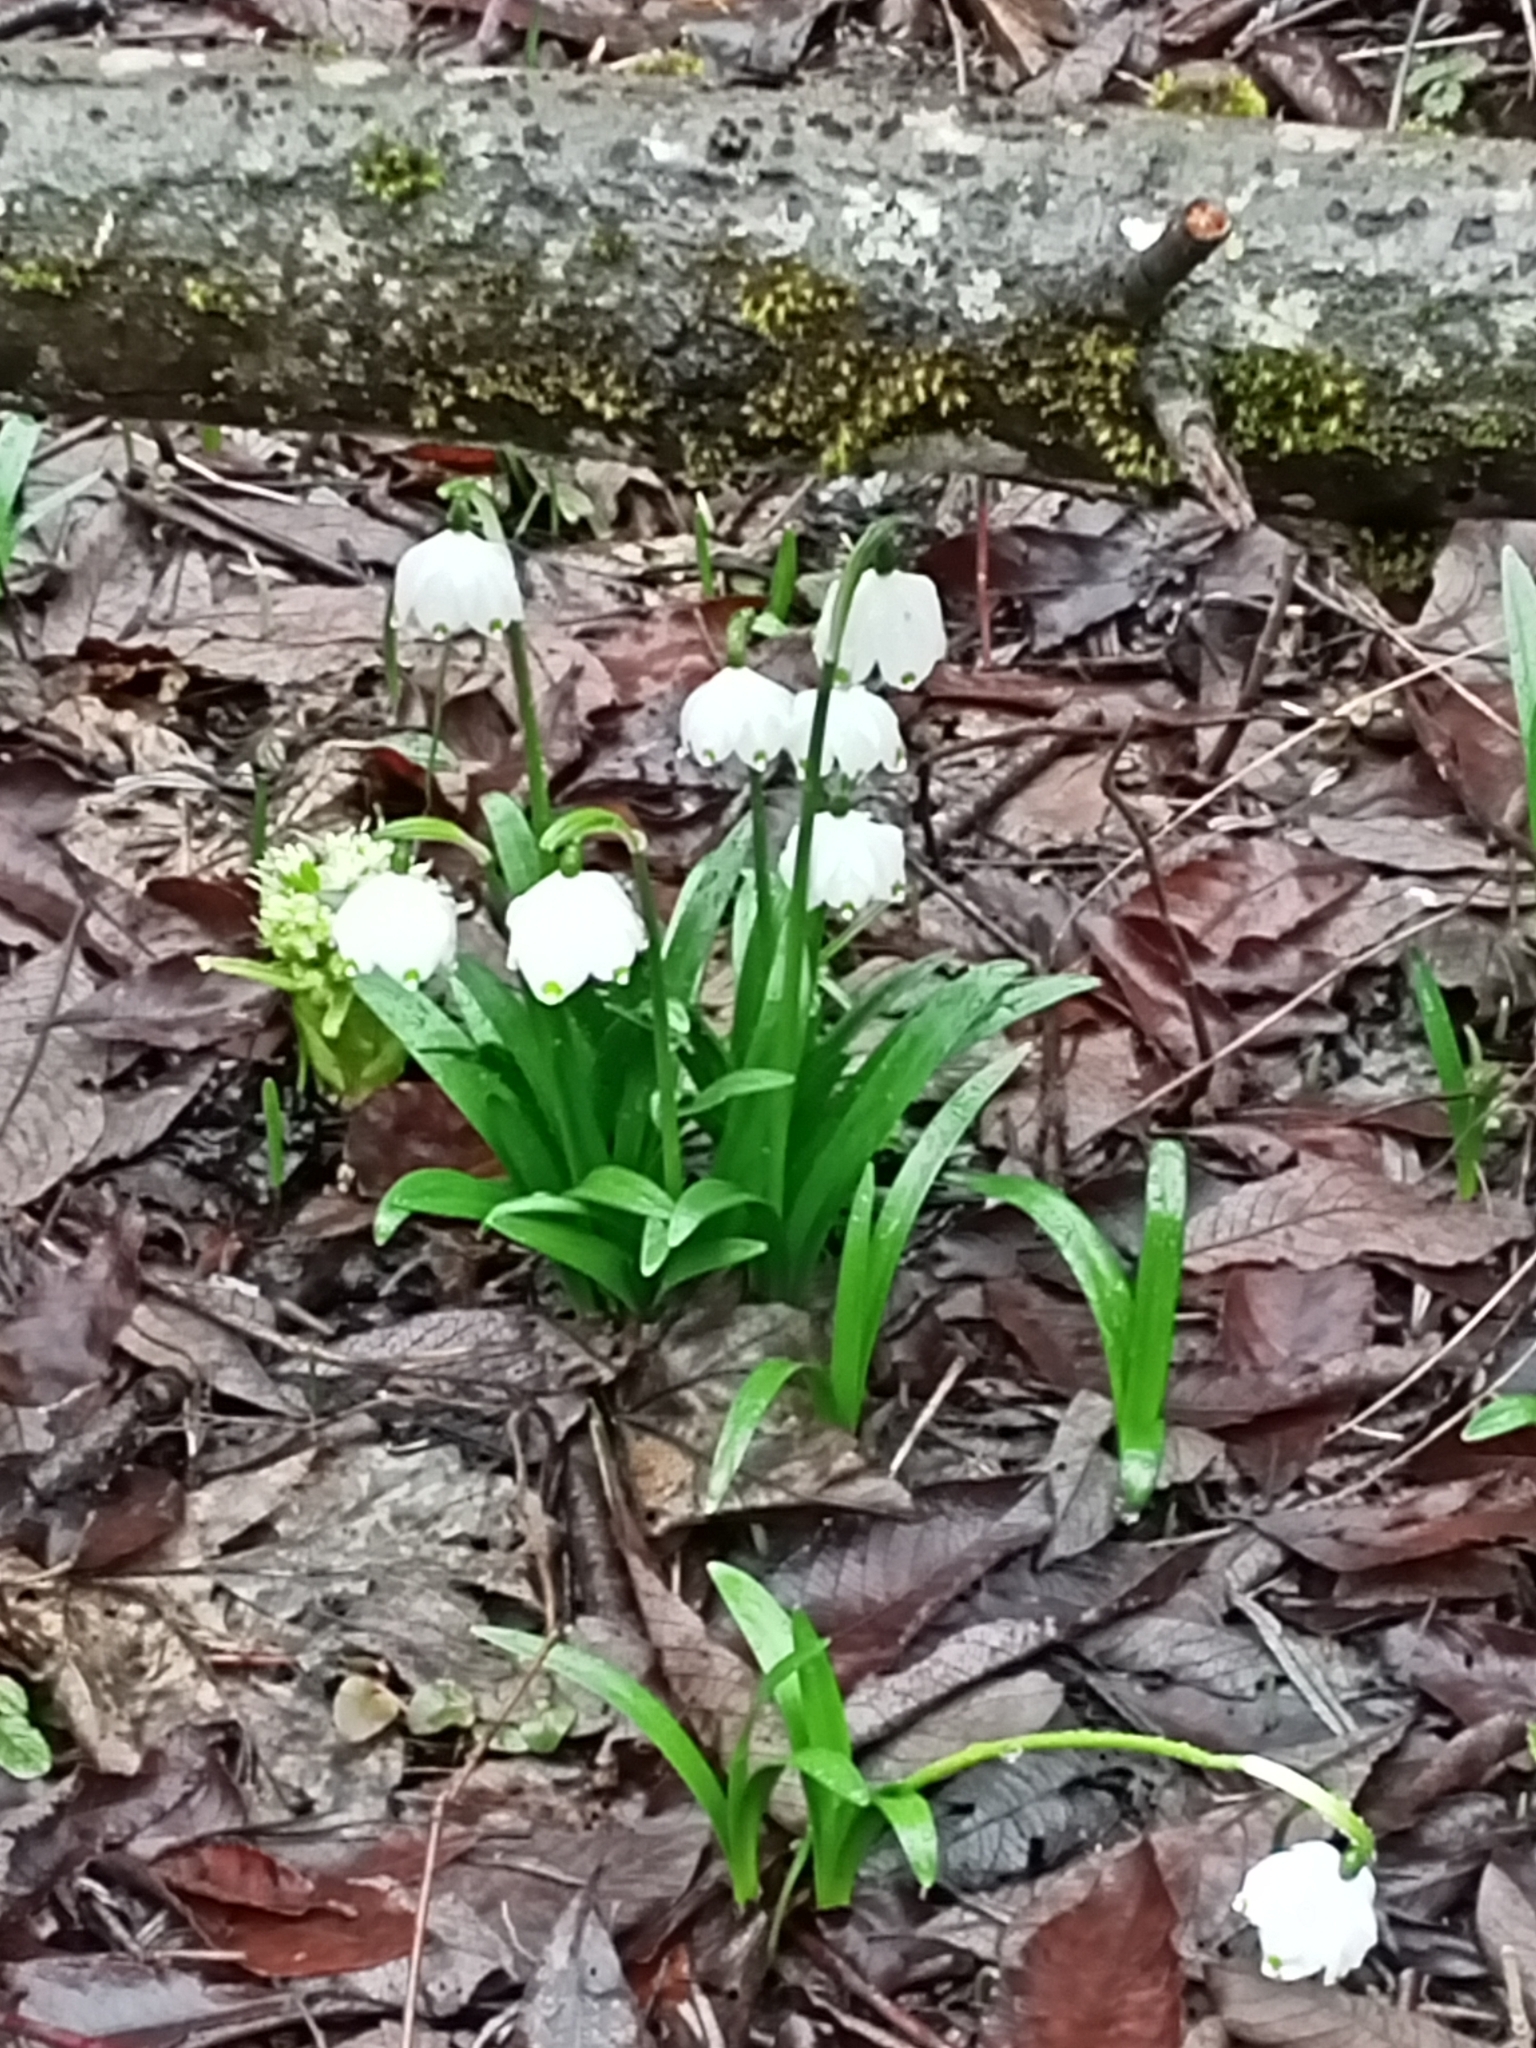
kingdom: Plantae
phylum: Tracheophyta
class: Liliopsida
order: Asparagales
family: Amaryllidaceae
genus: Leucojum
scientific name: Leucojum vernum
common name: Spring snowflake
